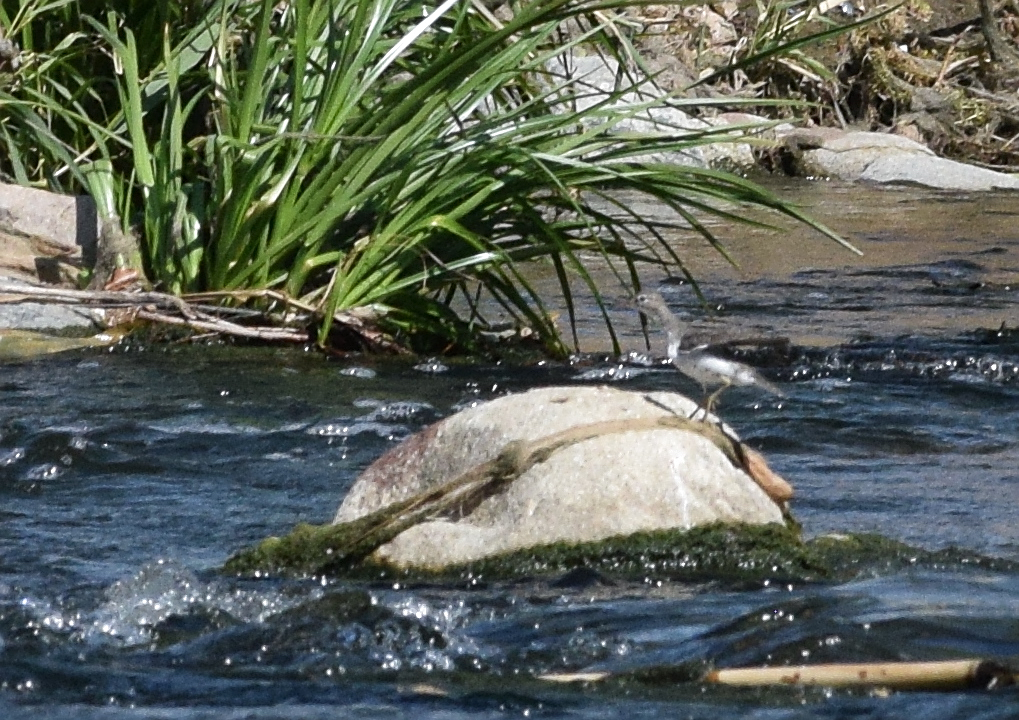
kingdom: Animalia
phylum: Chordata
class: Aves
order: Charadriiformes
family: Scolopacidae
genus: Actitis
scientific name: Actitis macularius
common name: Spotted sandpiper
